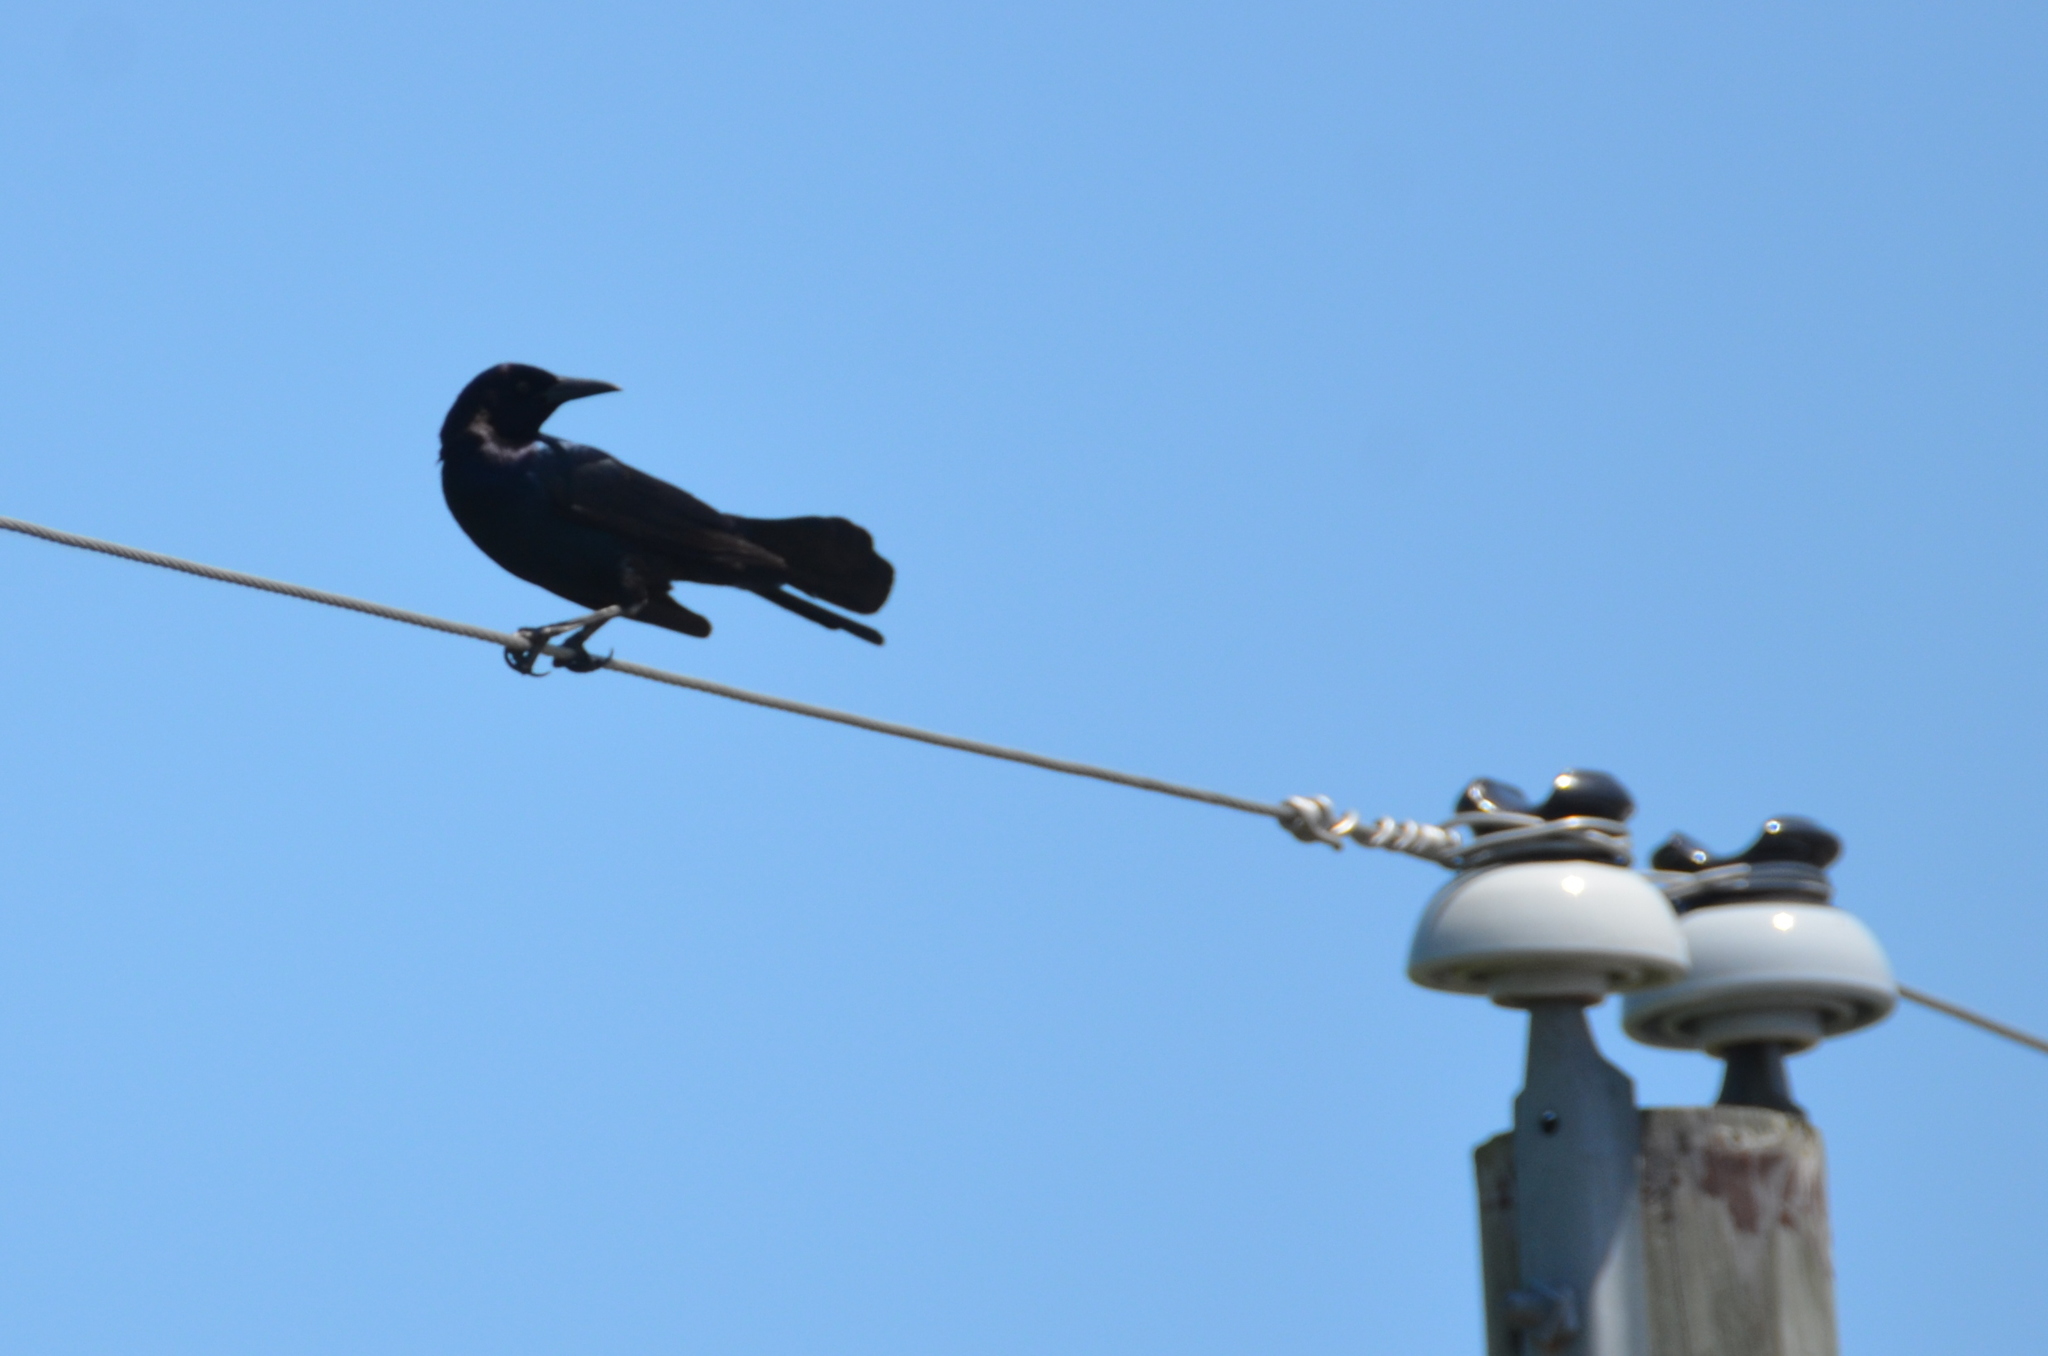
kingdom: Animalia
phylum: Chordata
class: Aves
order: Passeriformes
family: Icteridae
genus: Quiscalus
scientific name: Quiscalus major
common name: Boat-tailed grackle
